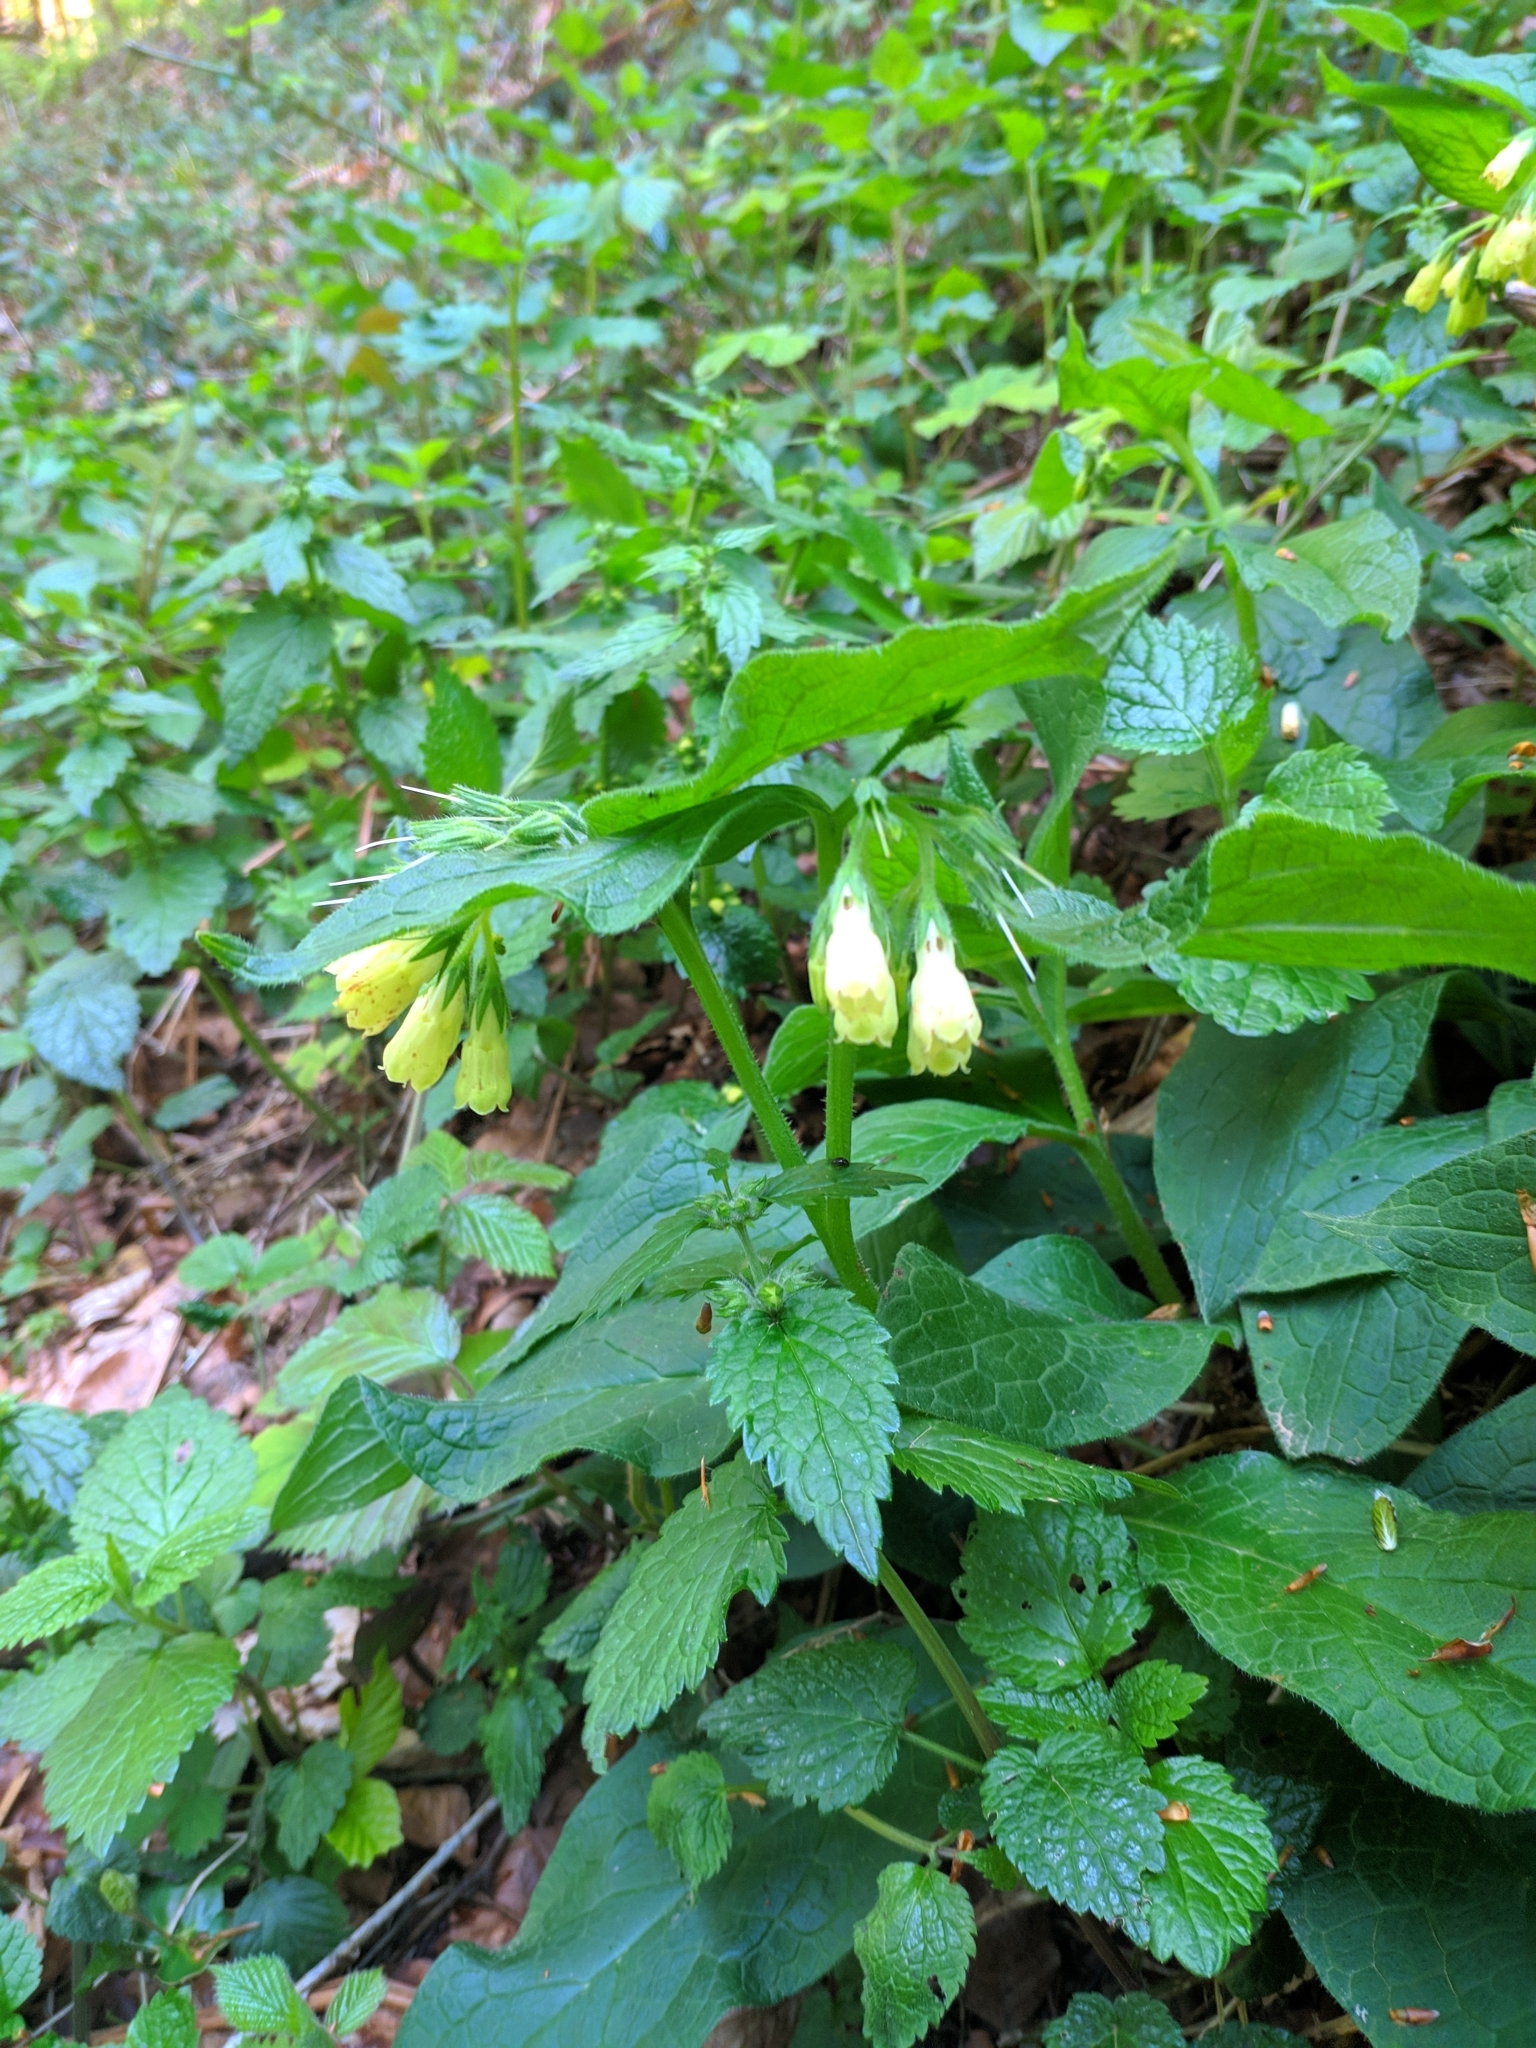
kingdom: Plantae
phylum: Tracheophyta
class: Magnoliopsida
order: Boraginales
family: Boraginaceae
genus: Symphytum
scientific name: Symphytum tuberosum
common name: Tuberous comfrey
